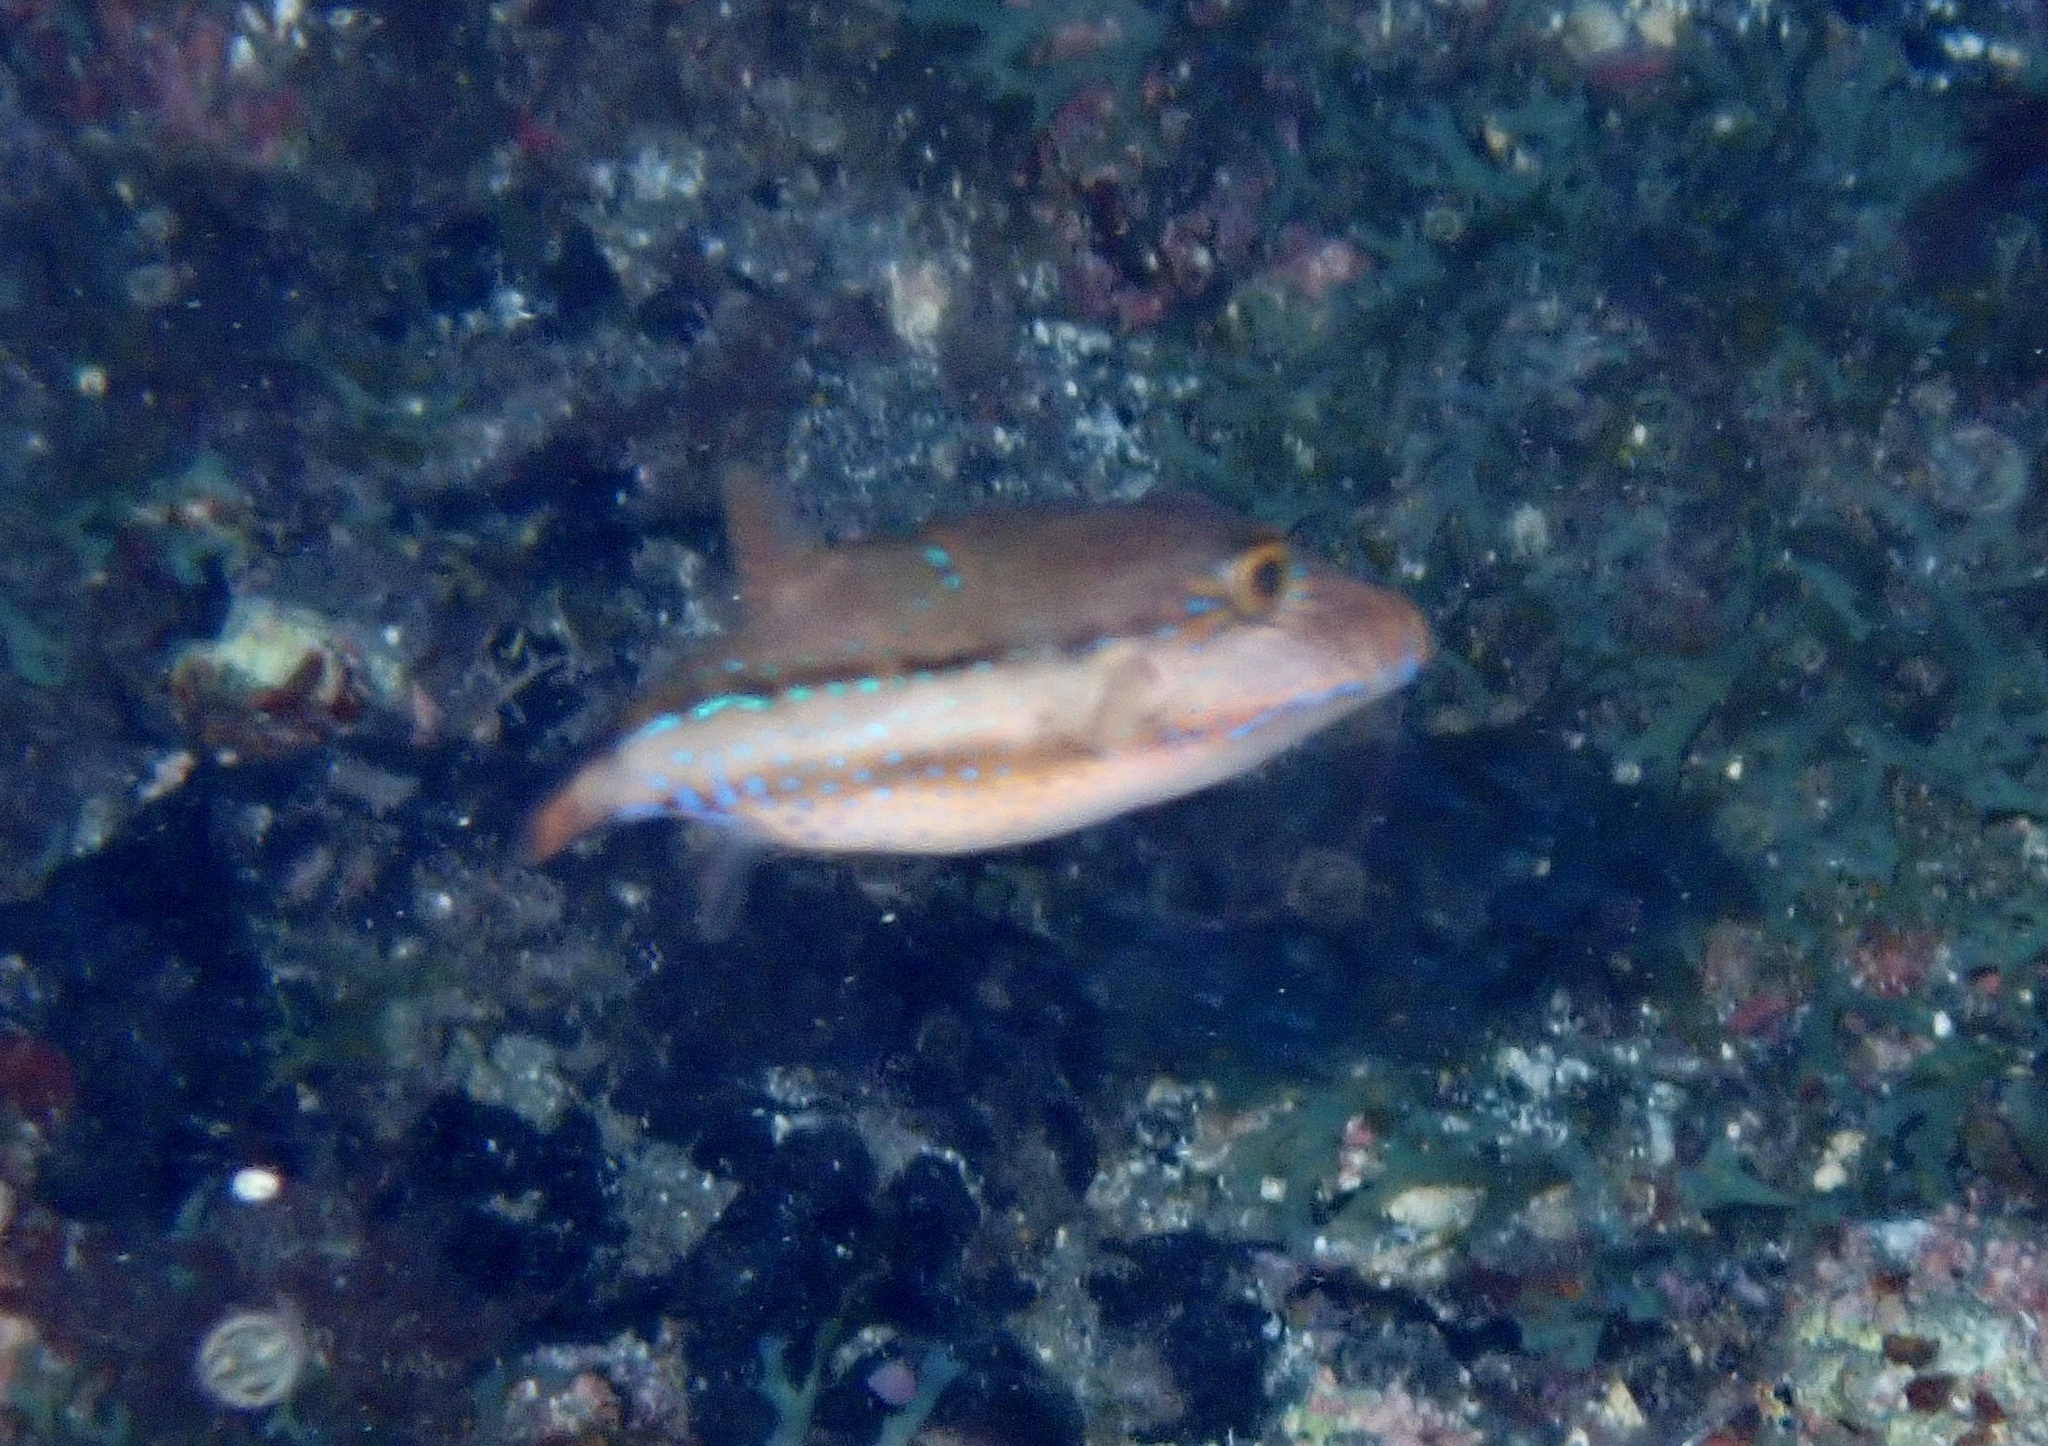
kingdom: Animalia
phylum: Chordata
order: Tetraodontiformes
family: Tetraodontidae
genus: Canthigaster
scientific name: Canthigaster capistrata
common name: Macaronesian sharpnose-puffer
